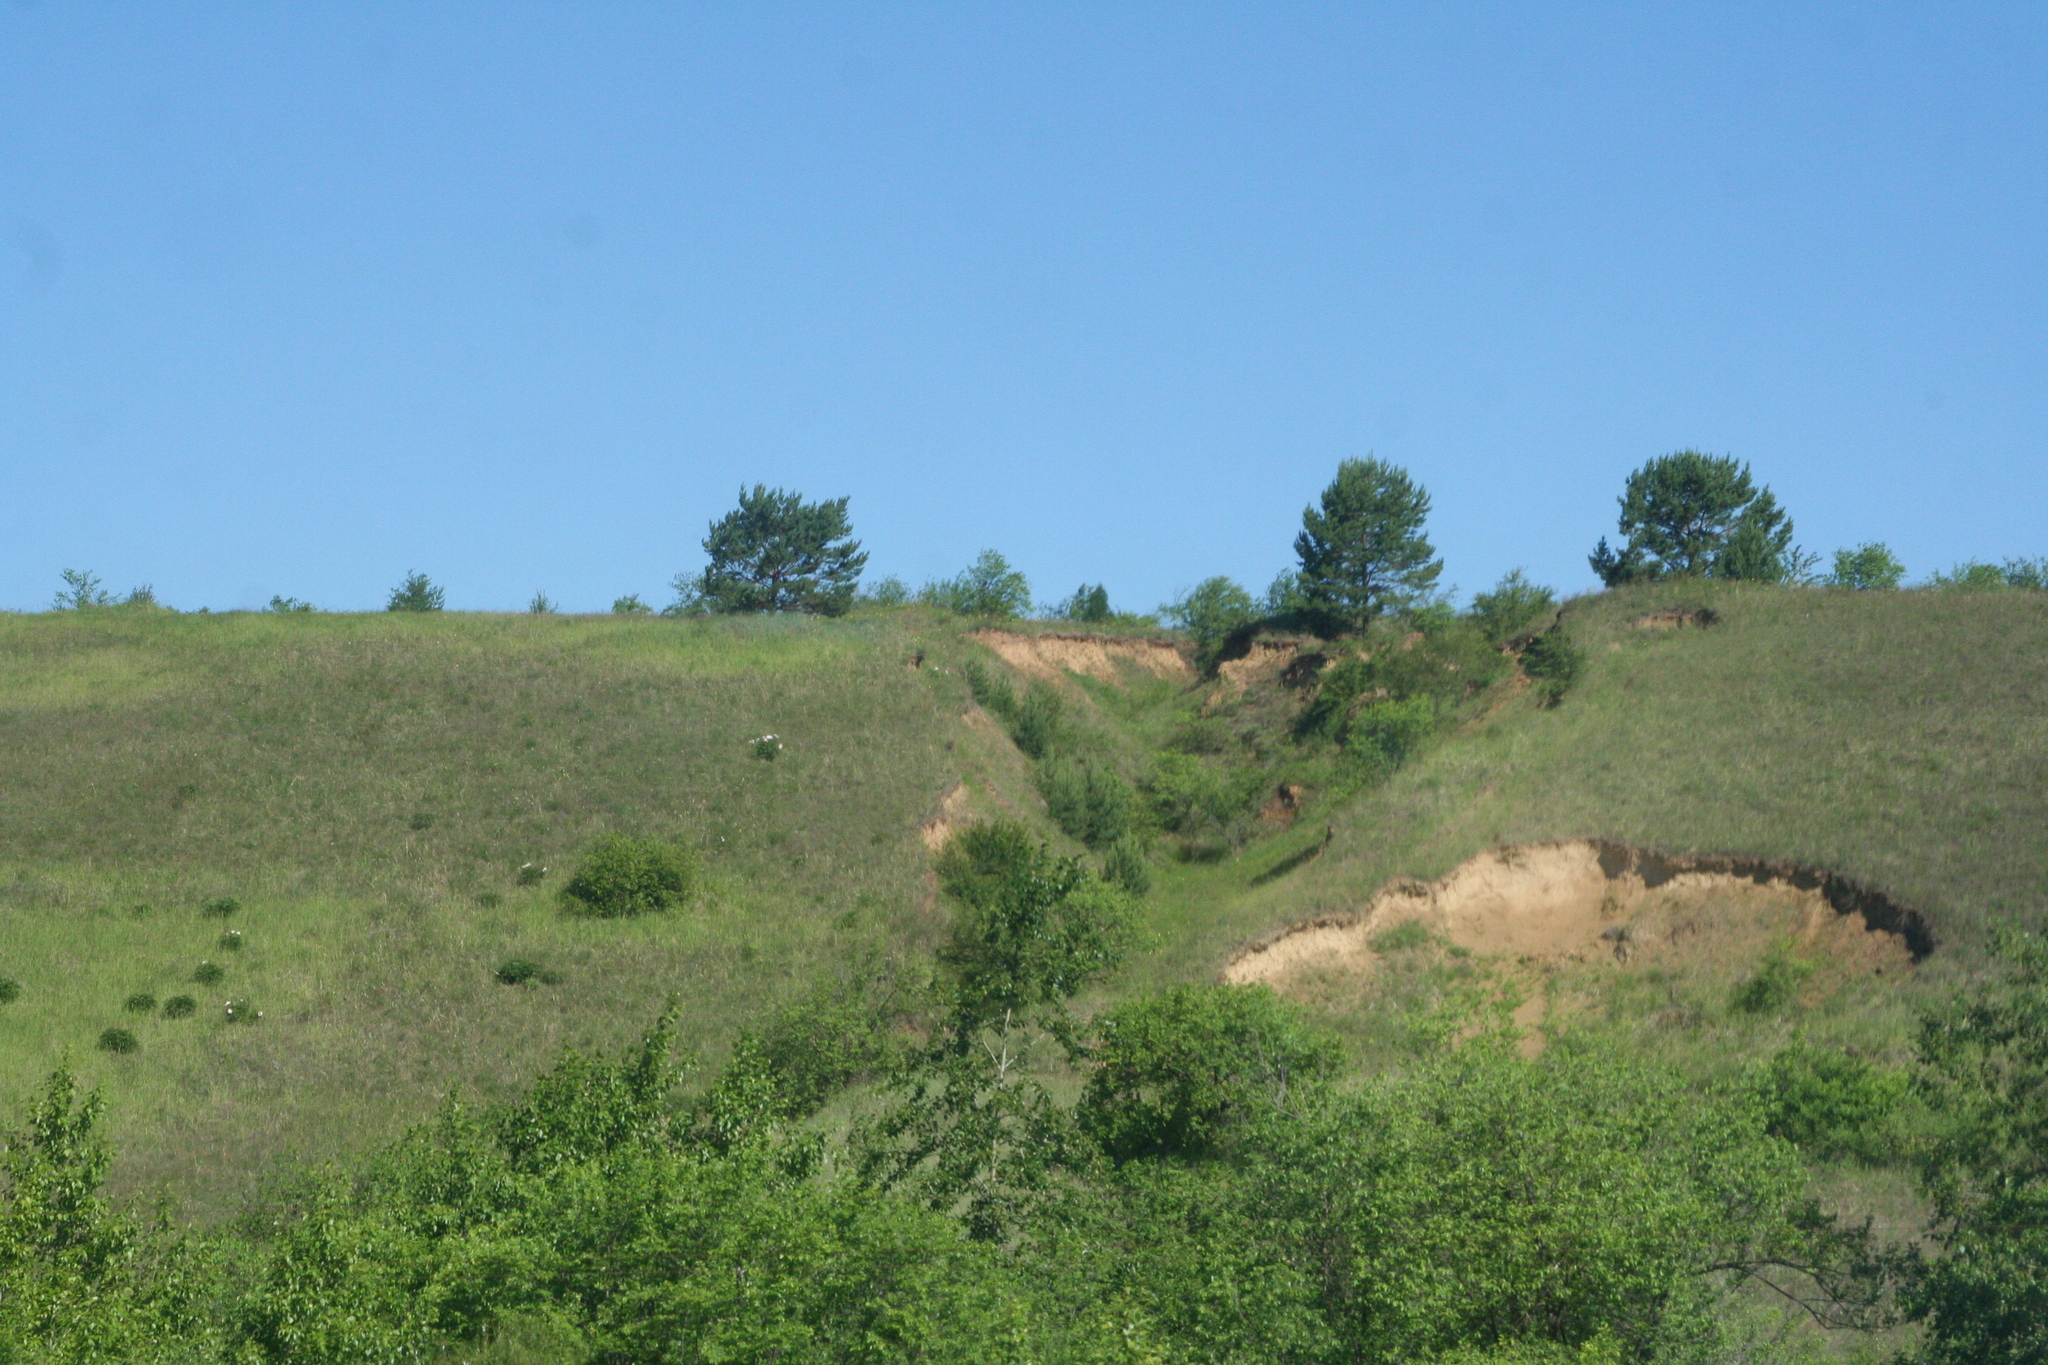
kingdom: Plantae
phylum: Tracheophyta
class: Pinopsida
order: Pinales
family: Pinaceae
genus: Pinus
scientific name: Pinus sylvestris
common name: Scots pine
